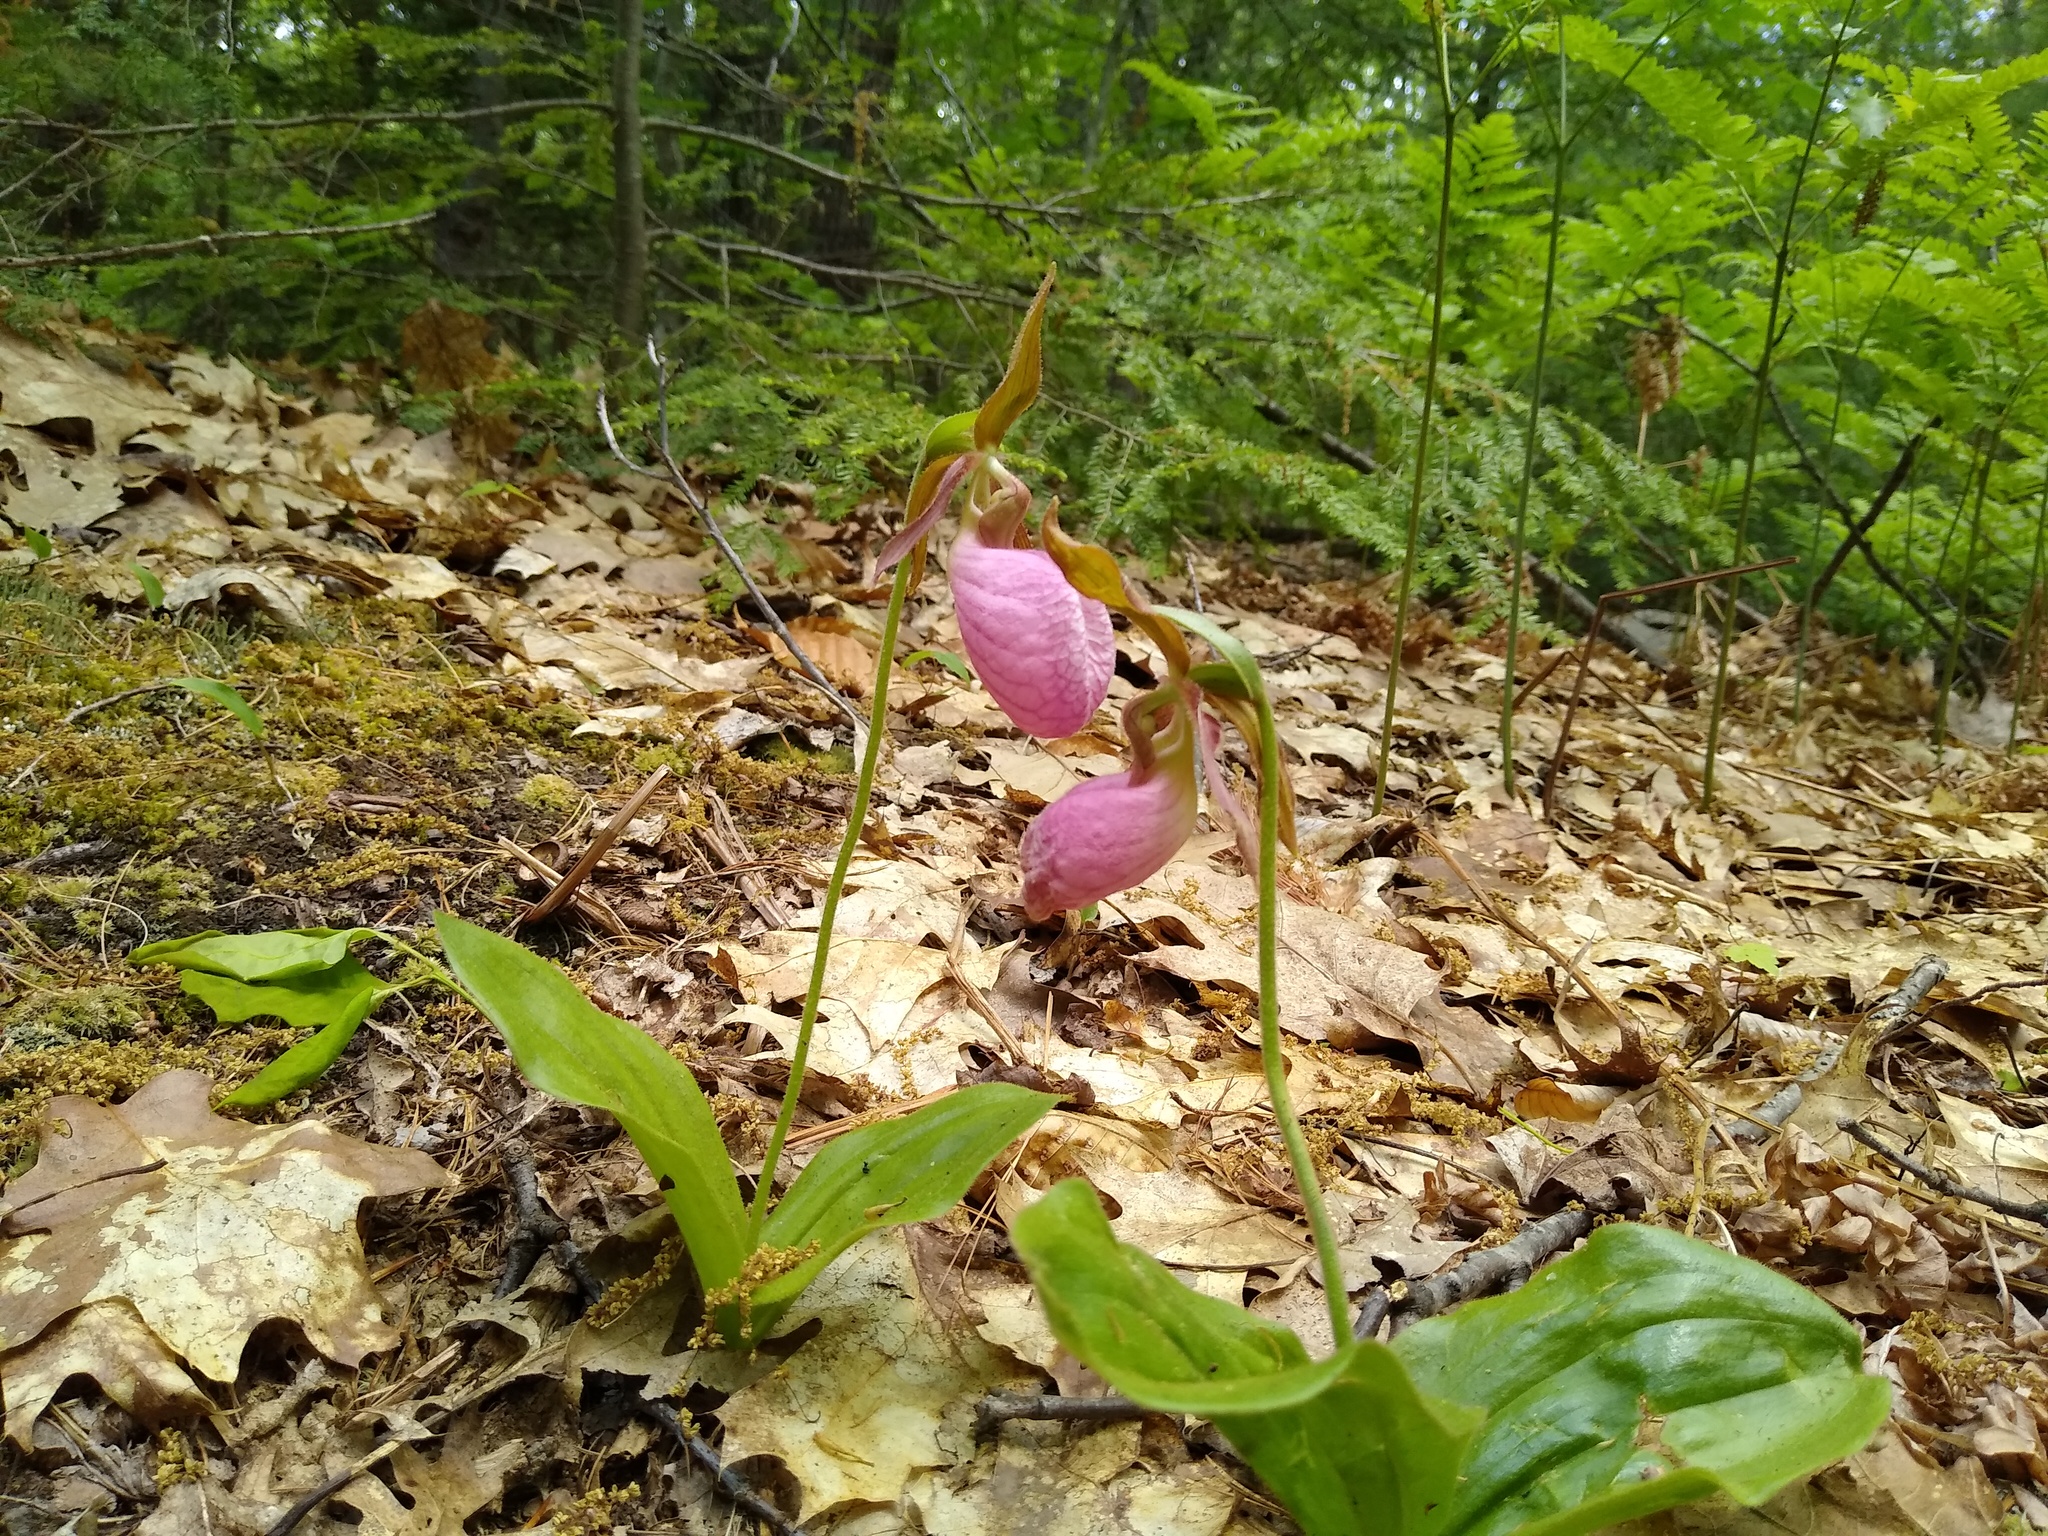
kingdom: Plantae
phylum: Tracheophyta
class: Liliopsida
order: Asparagales
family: Orchidaceae
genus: Cypripedium
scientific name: Cypripedium acaule
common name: Pink lady's-slipper
